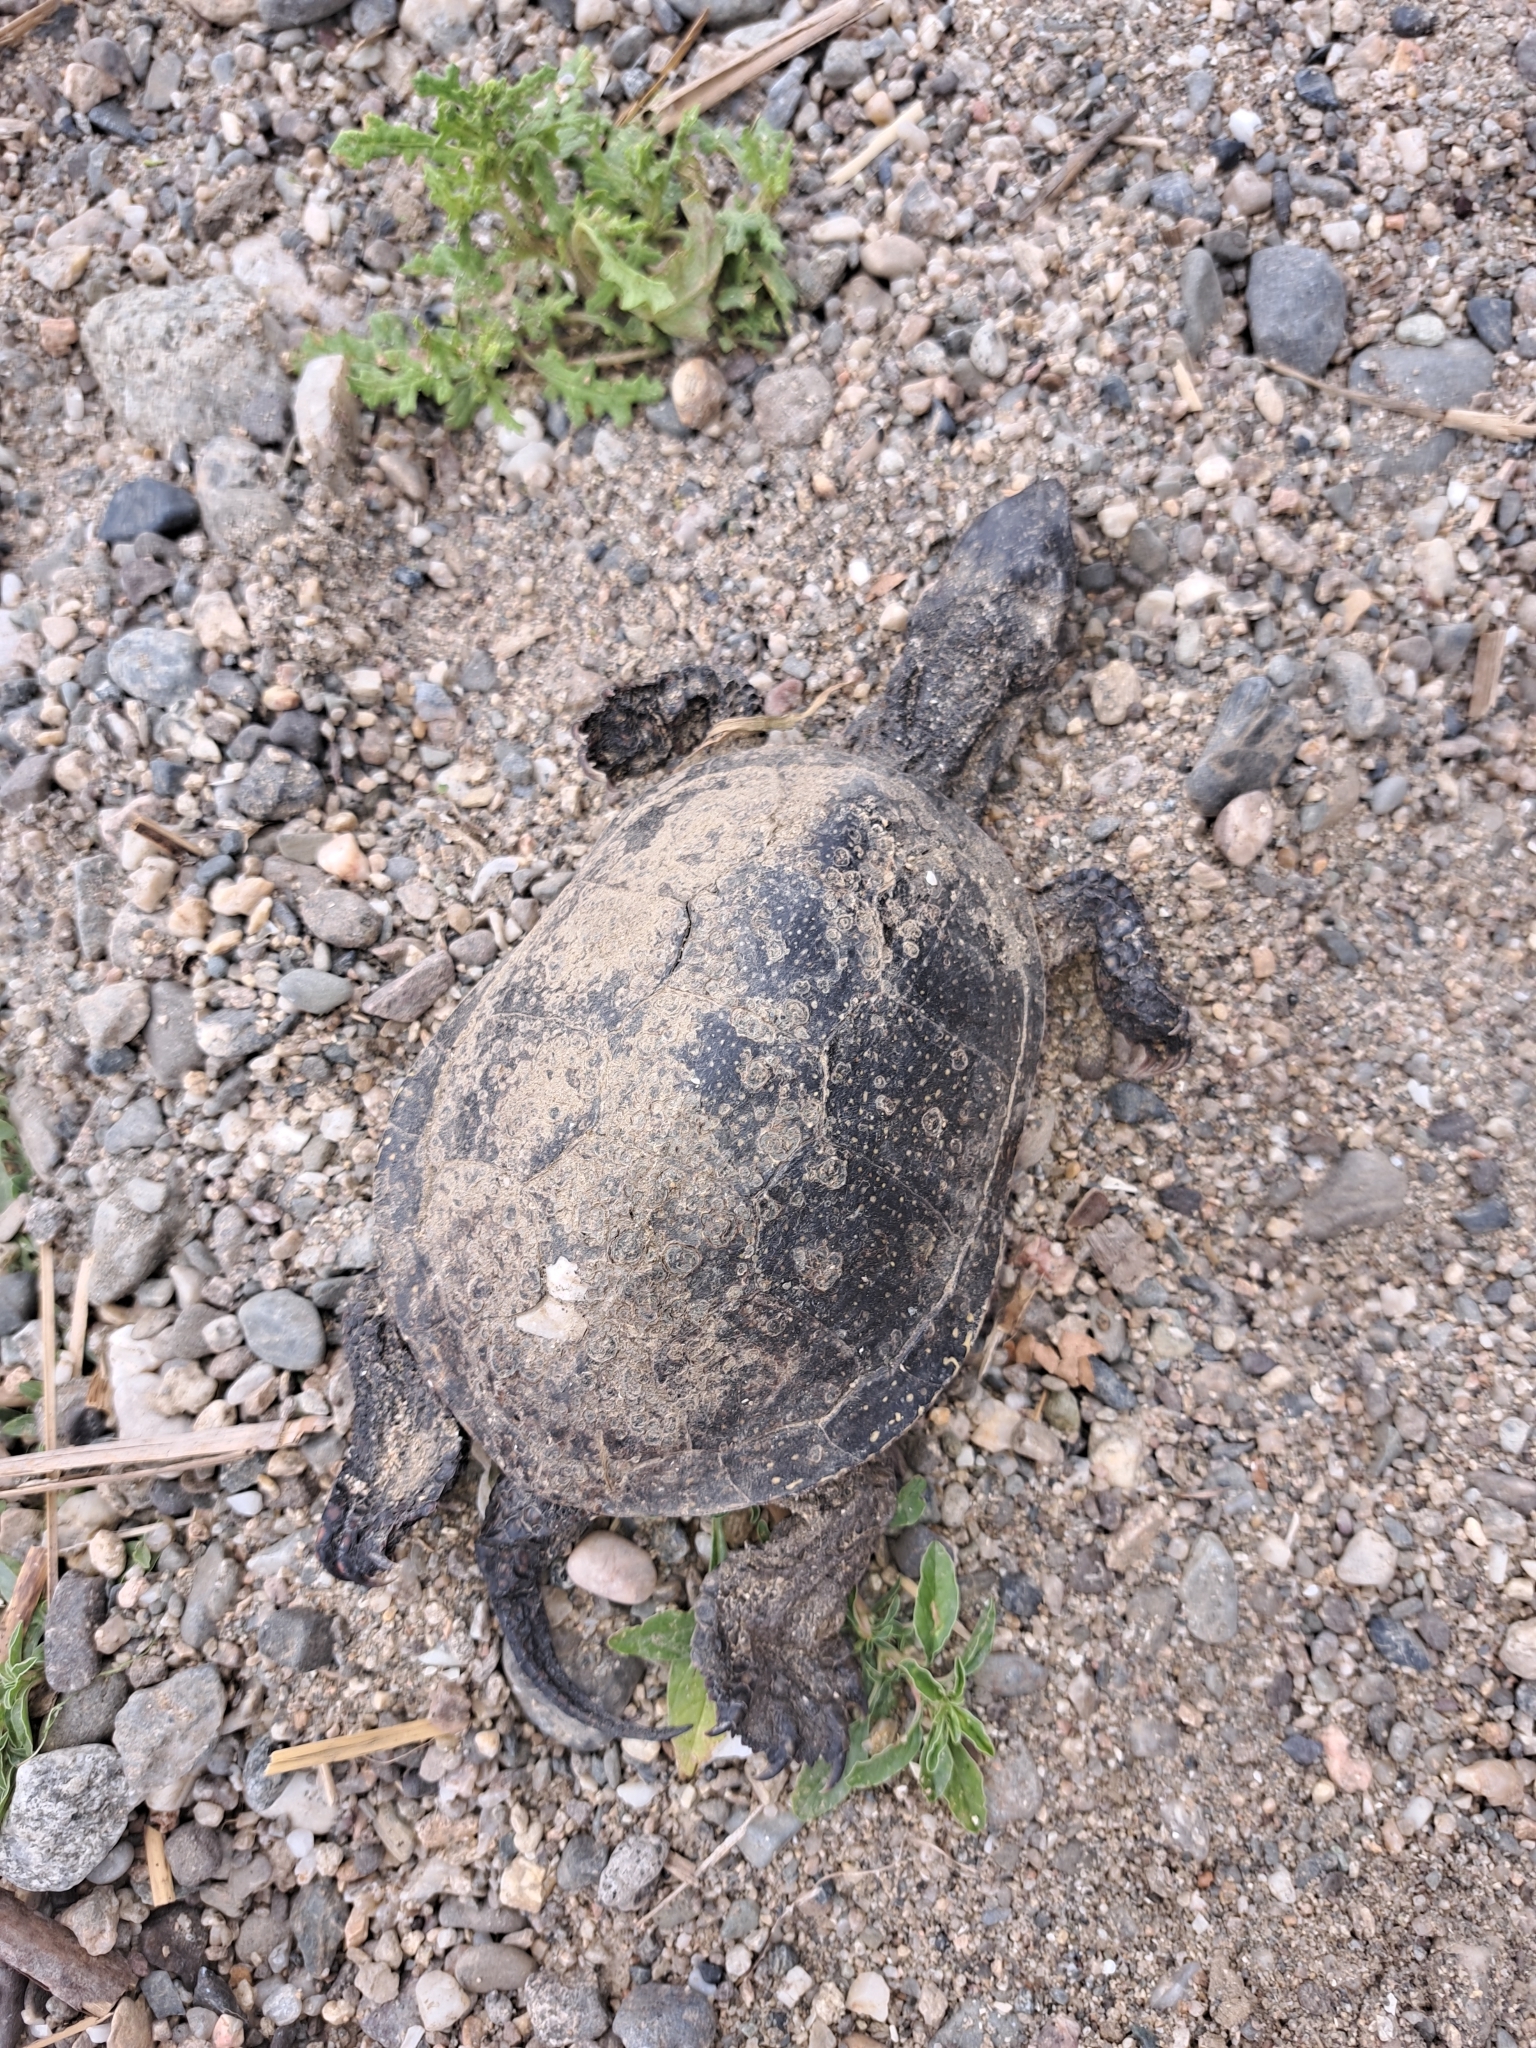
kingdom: Animalia
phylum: Chordata
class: Testudines
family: Emydidae
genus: Emys
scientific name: Emys orbicularis
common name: European pond turtle
